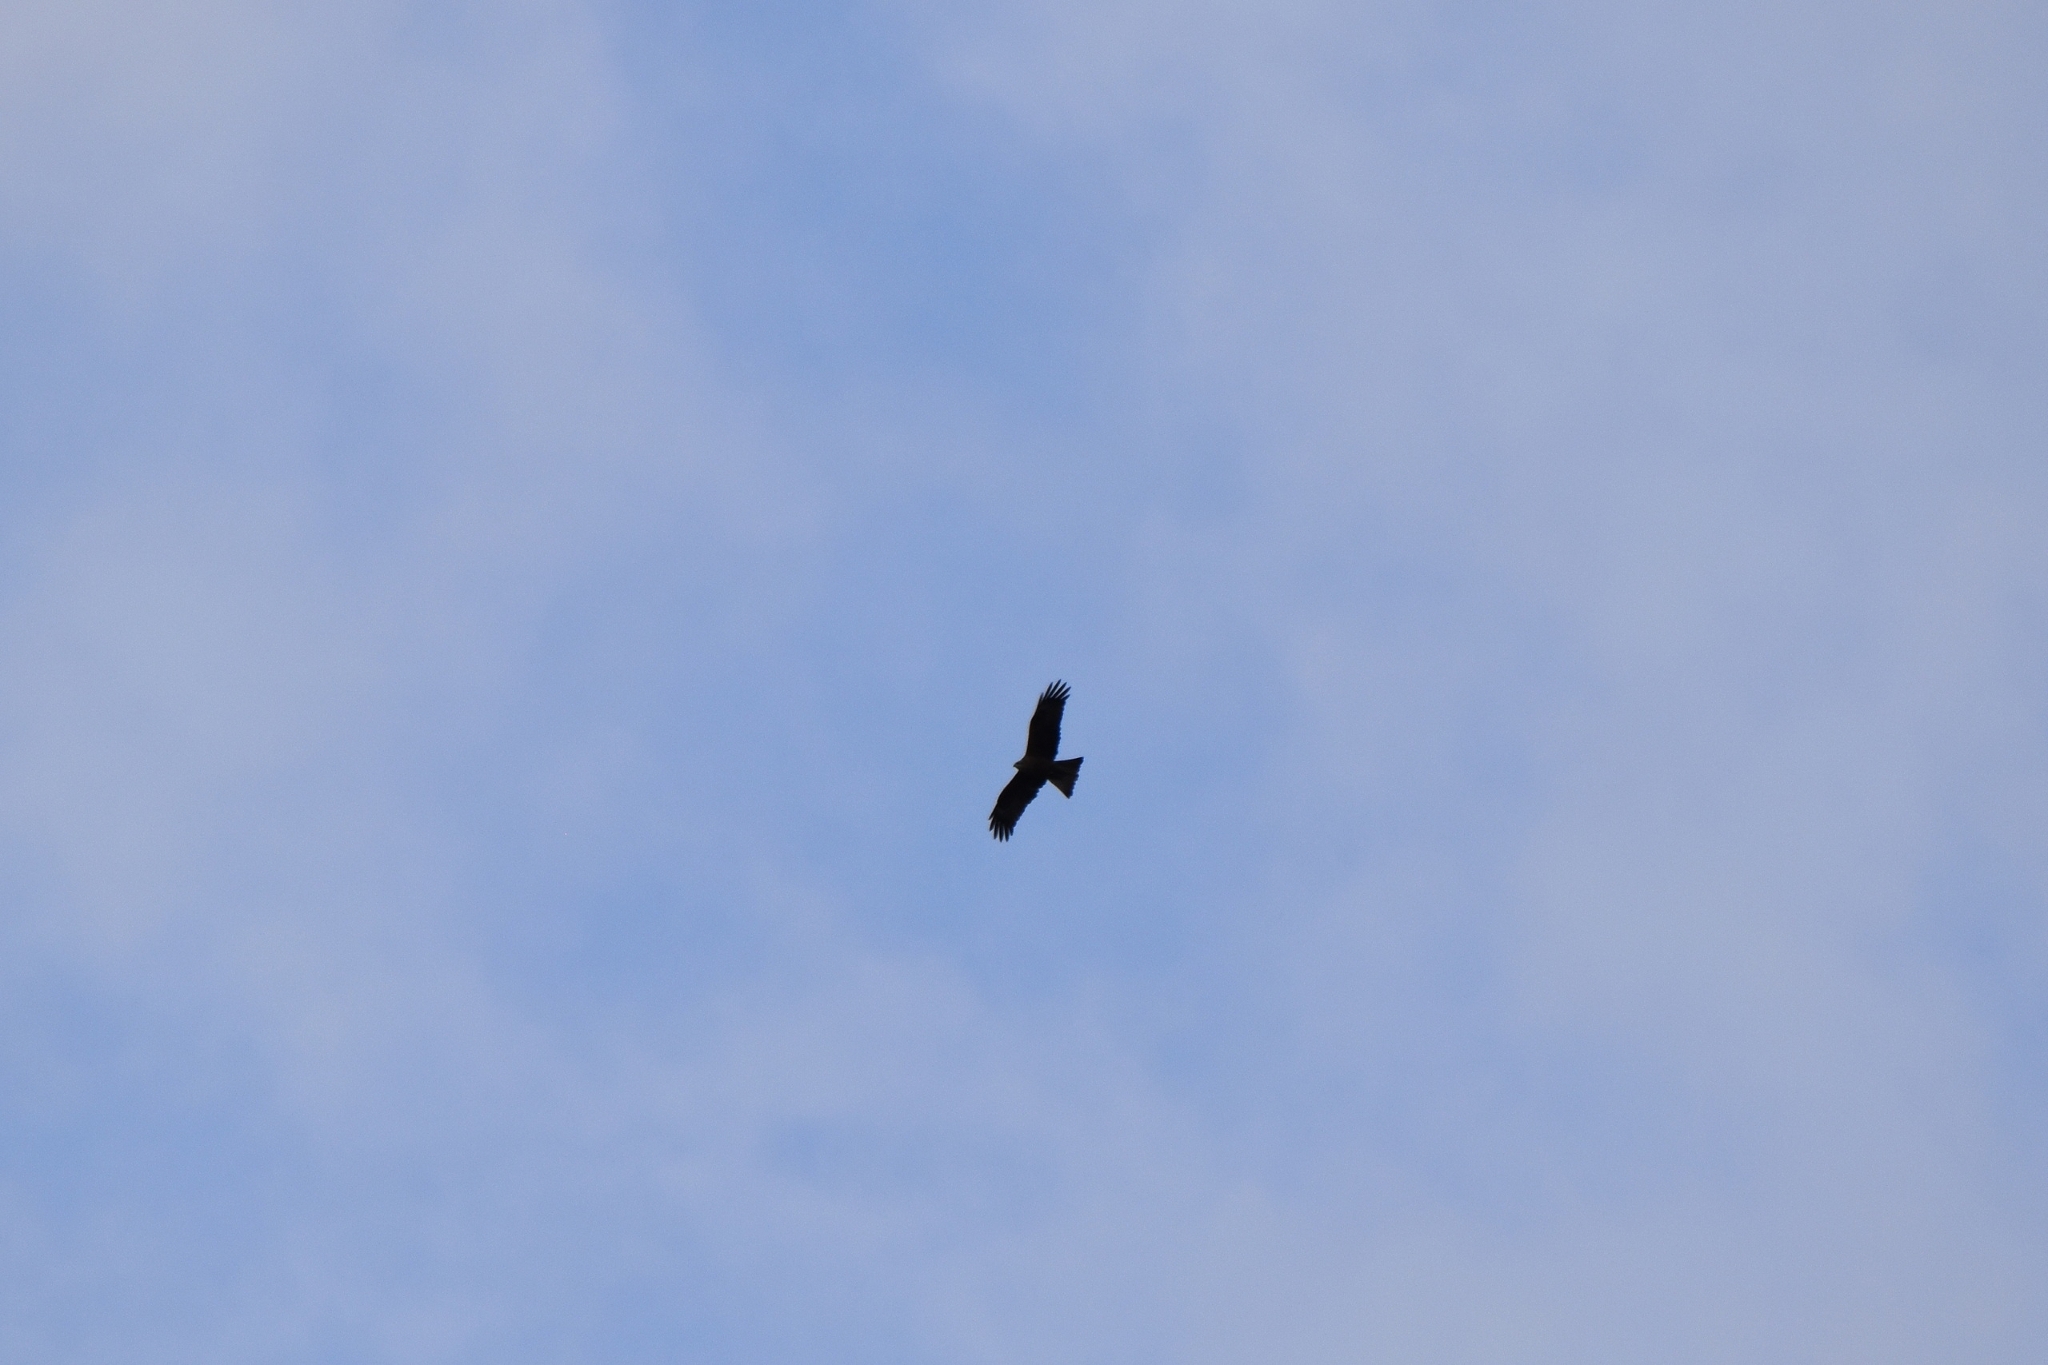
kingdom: Animalia
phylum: Chordata
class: Aves
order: Accipitriformes
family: Accipitridae
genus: Milvus
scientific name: Milvus migrans
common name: Black kite
